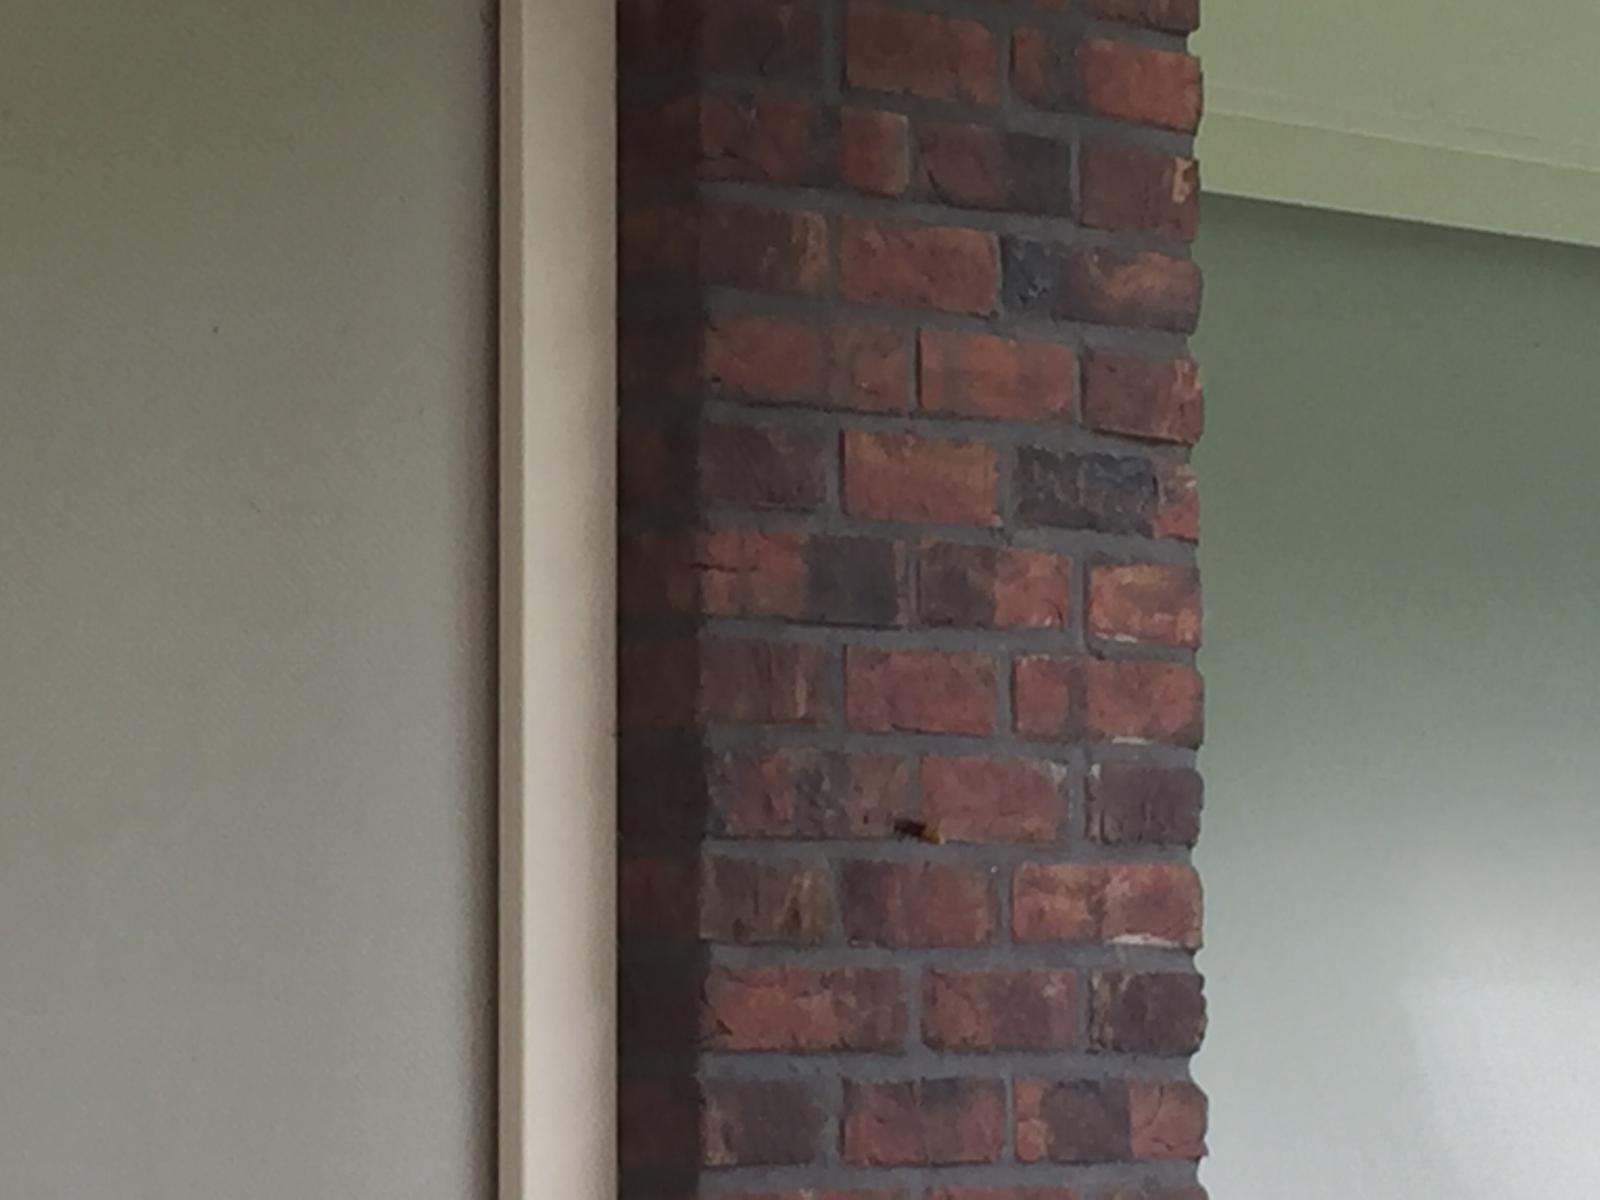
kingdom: Animalia
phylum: Arthropoda
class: Insecta
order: Hymenoptera
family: Vespidae
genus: Vespa
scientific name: Vespa crabro
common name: Hornet
